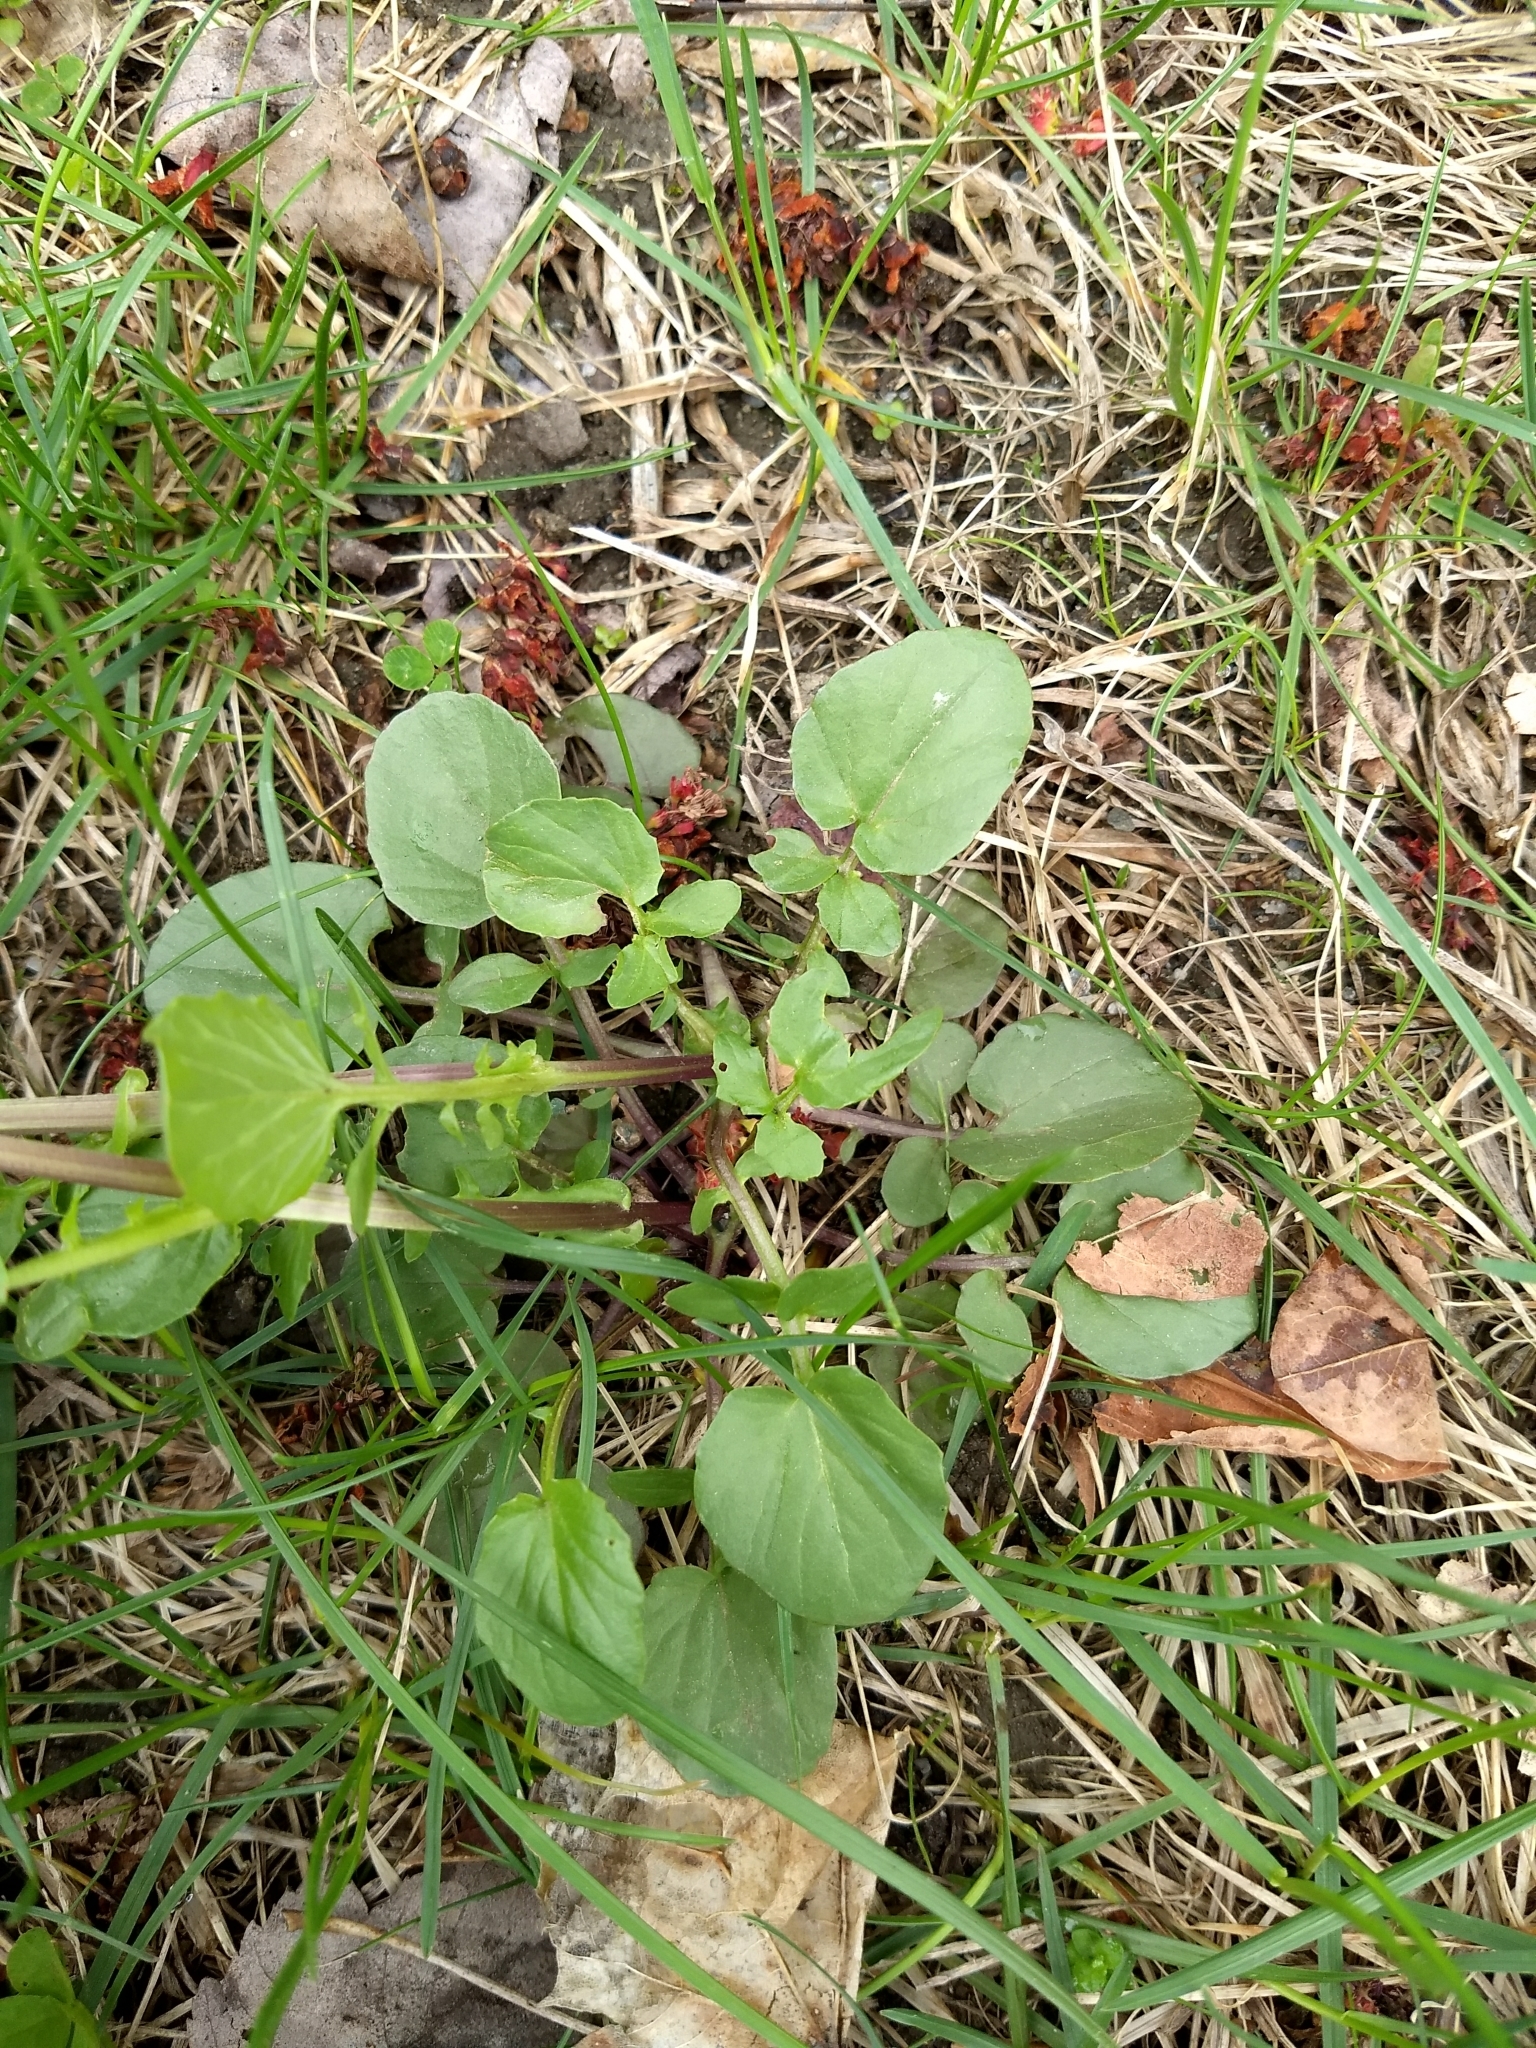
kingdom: Plantae
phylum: Tracheophyta
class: Magnoliopsida
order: Brassicales
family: Brassicaceae
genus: Barbarea
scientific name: Barbarea vulgaris
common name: Cressy-greens
